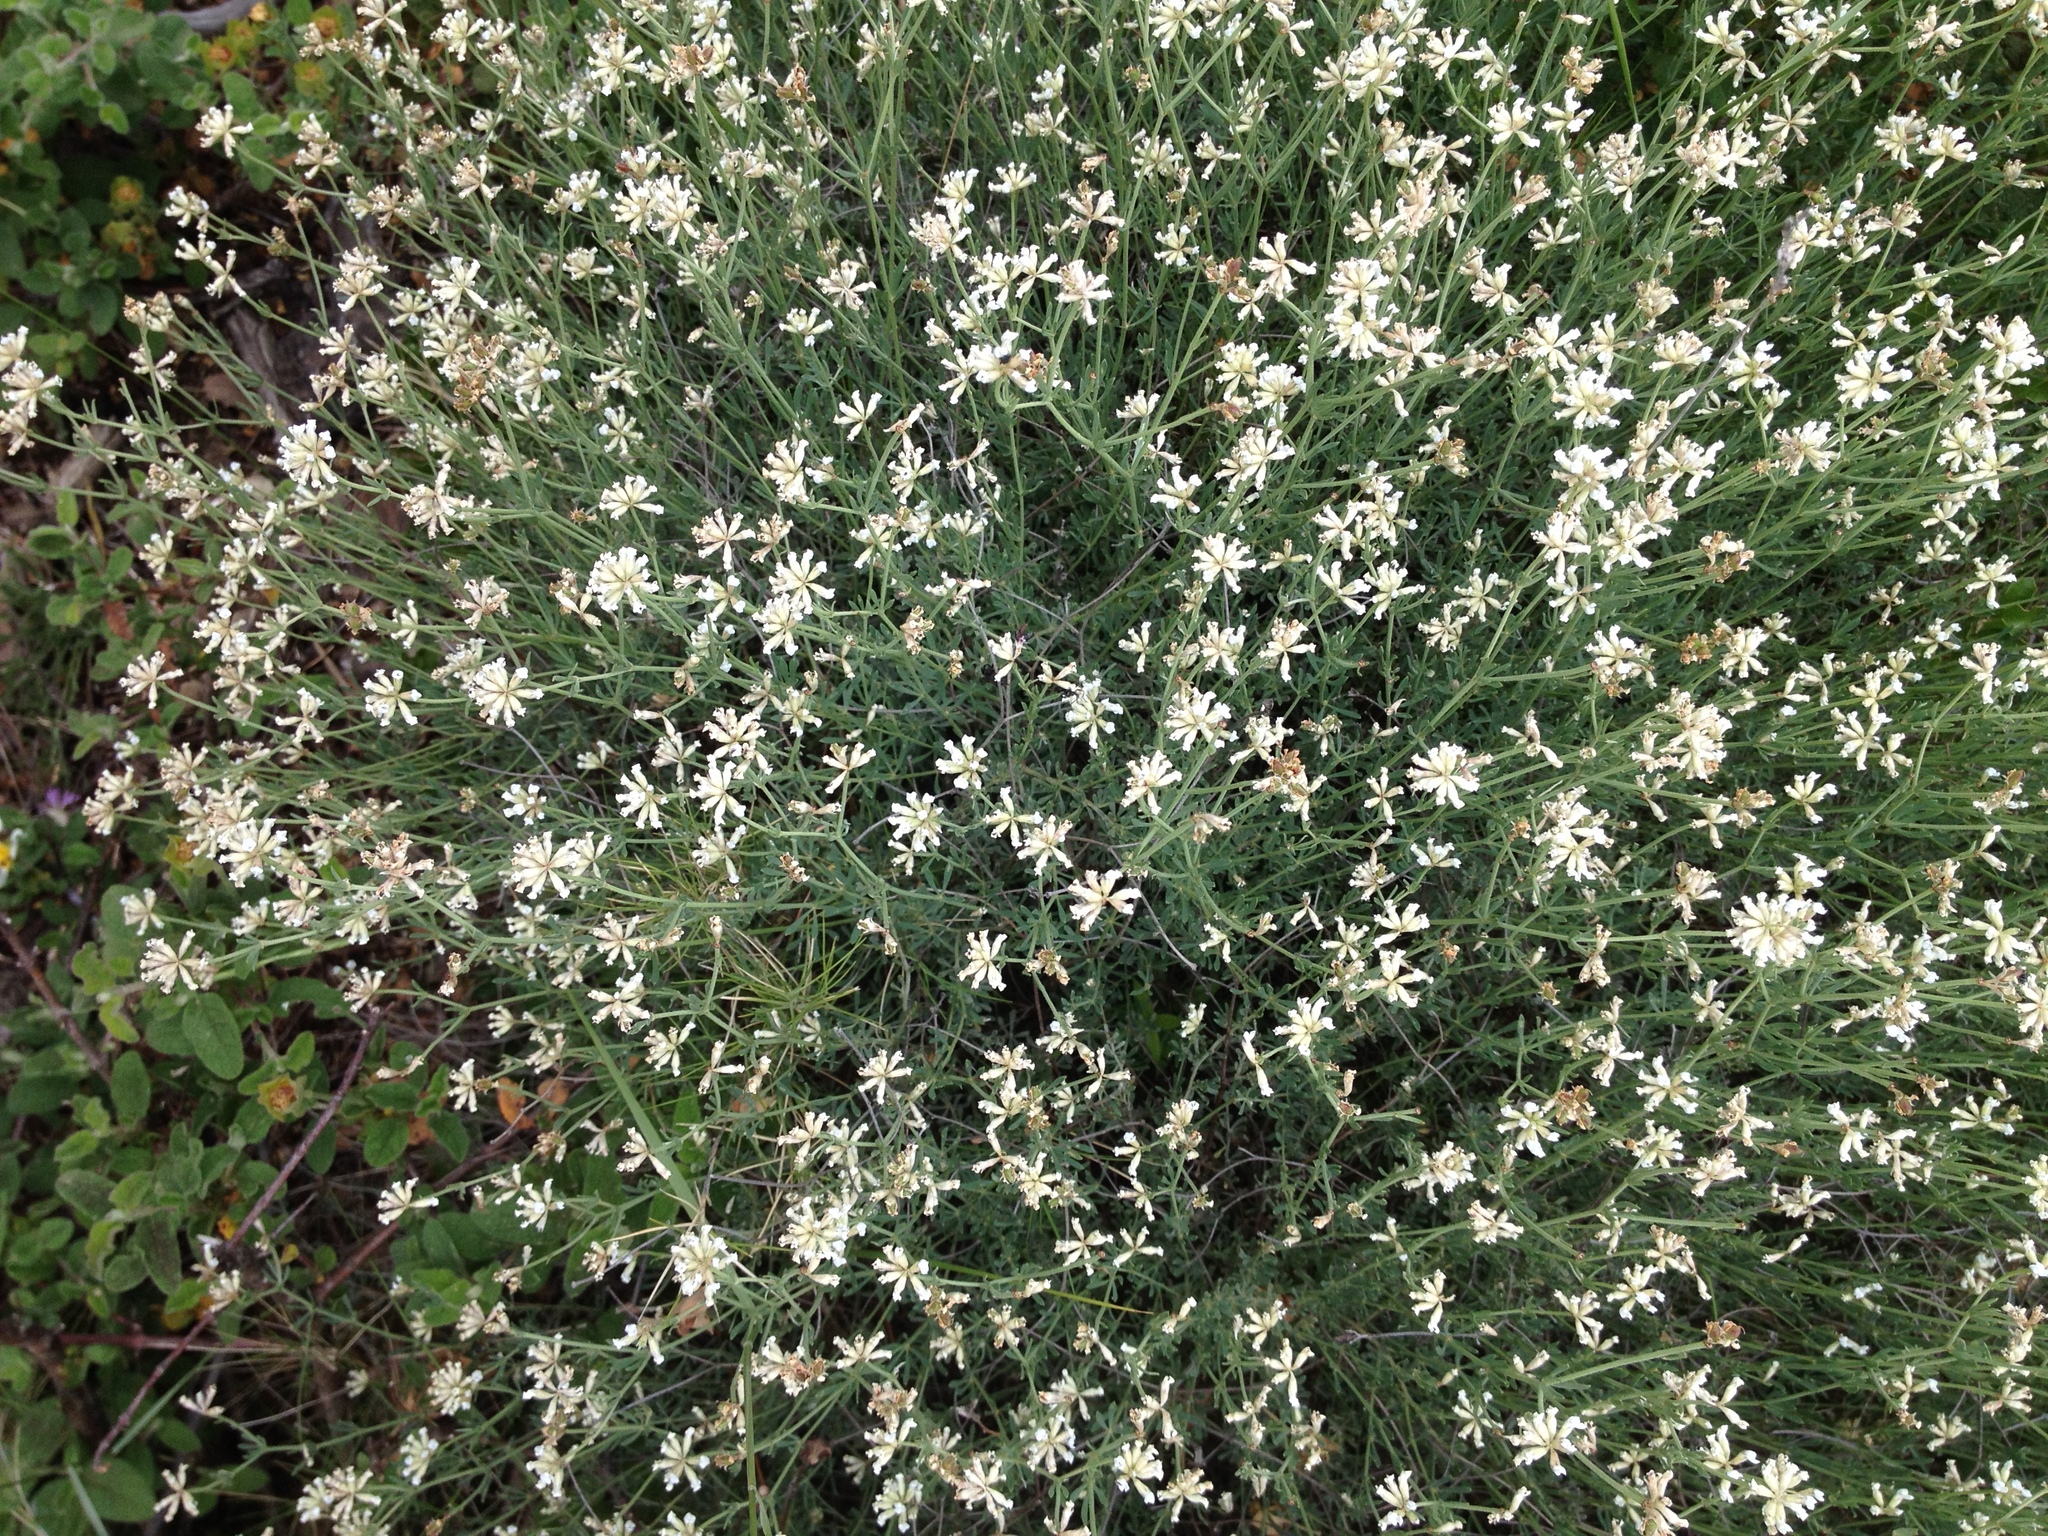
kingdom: Plantae
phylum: Tracheophyta
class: Magnoliopsida
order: Fabales
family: Fabaceae
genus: Lotus
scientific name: Lotus dorycnium
